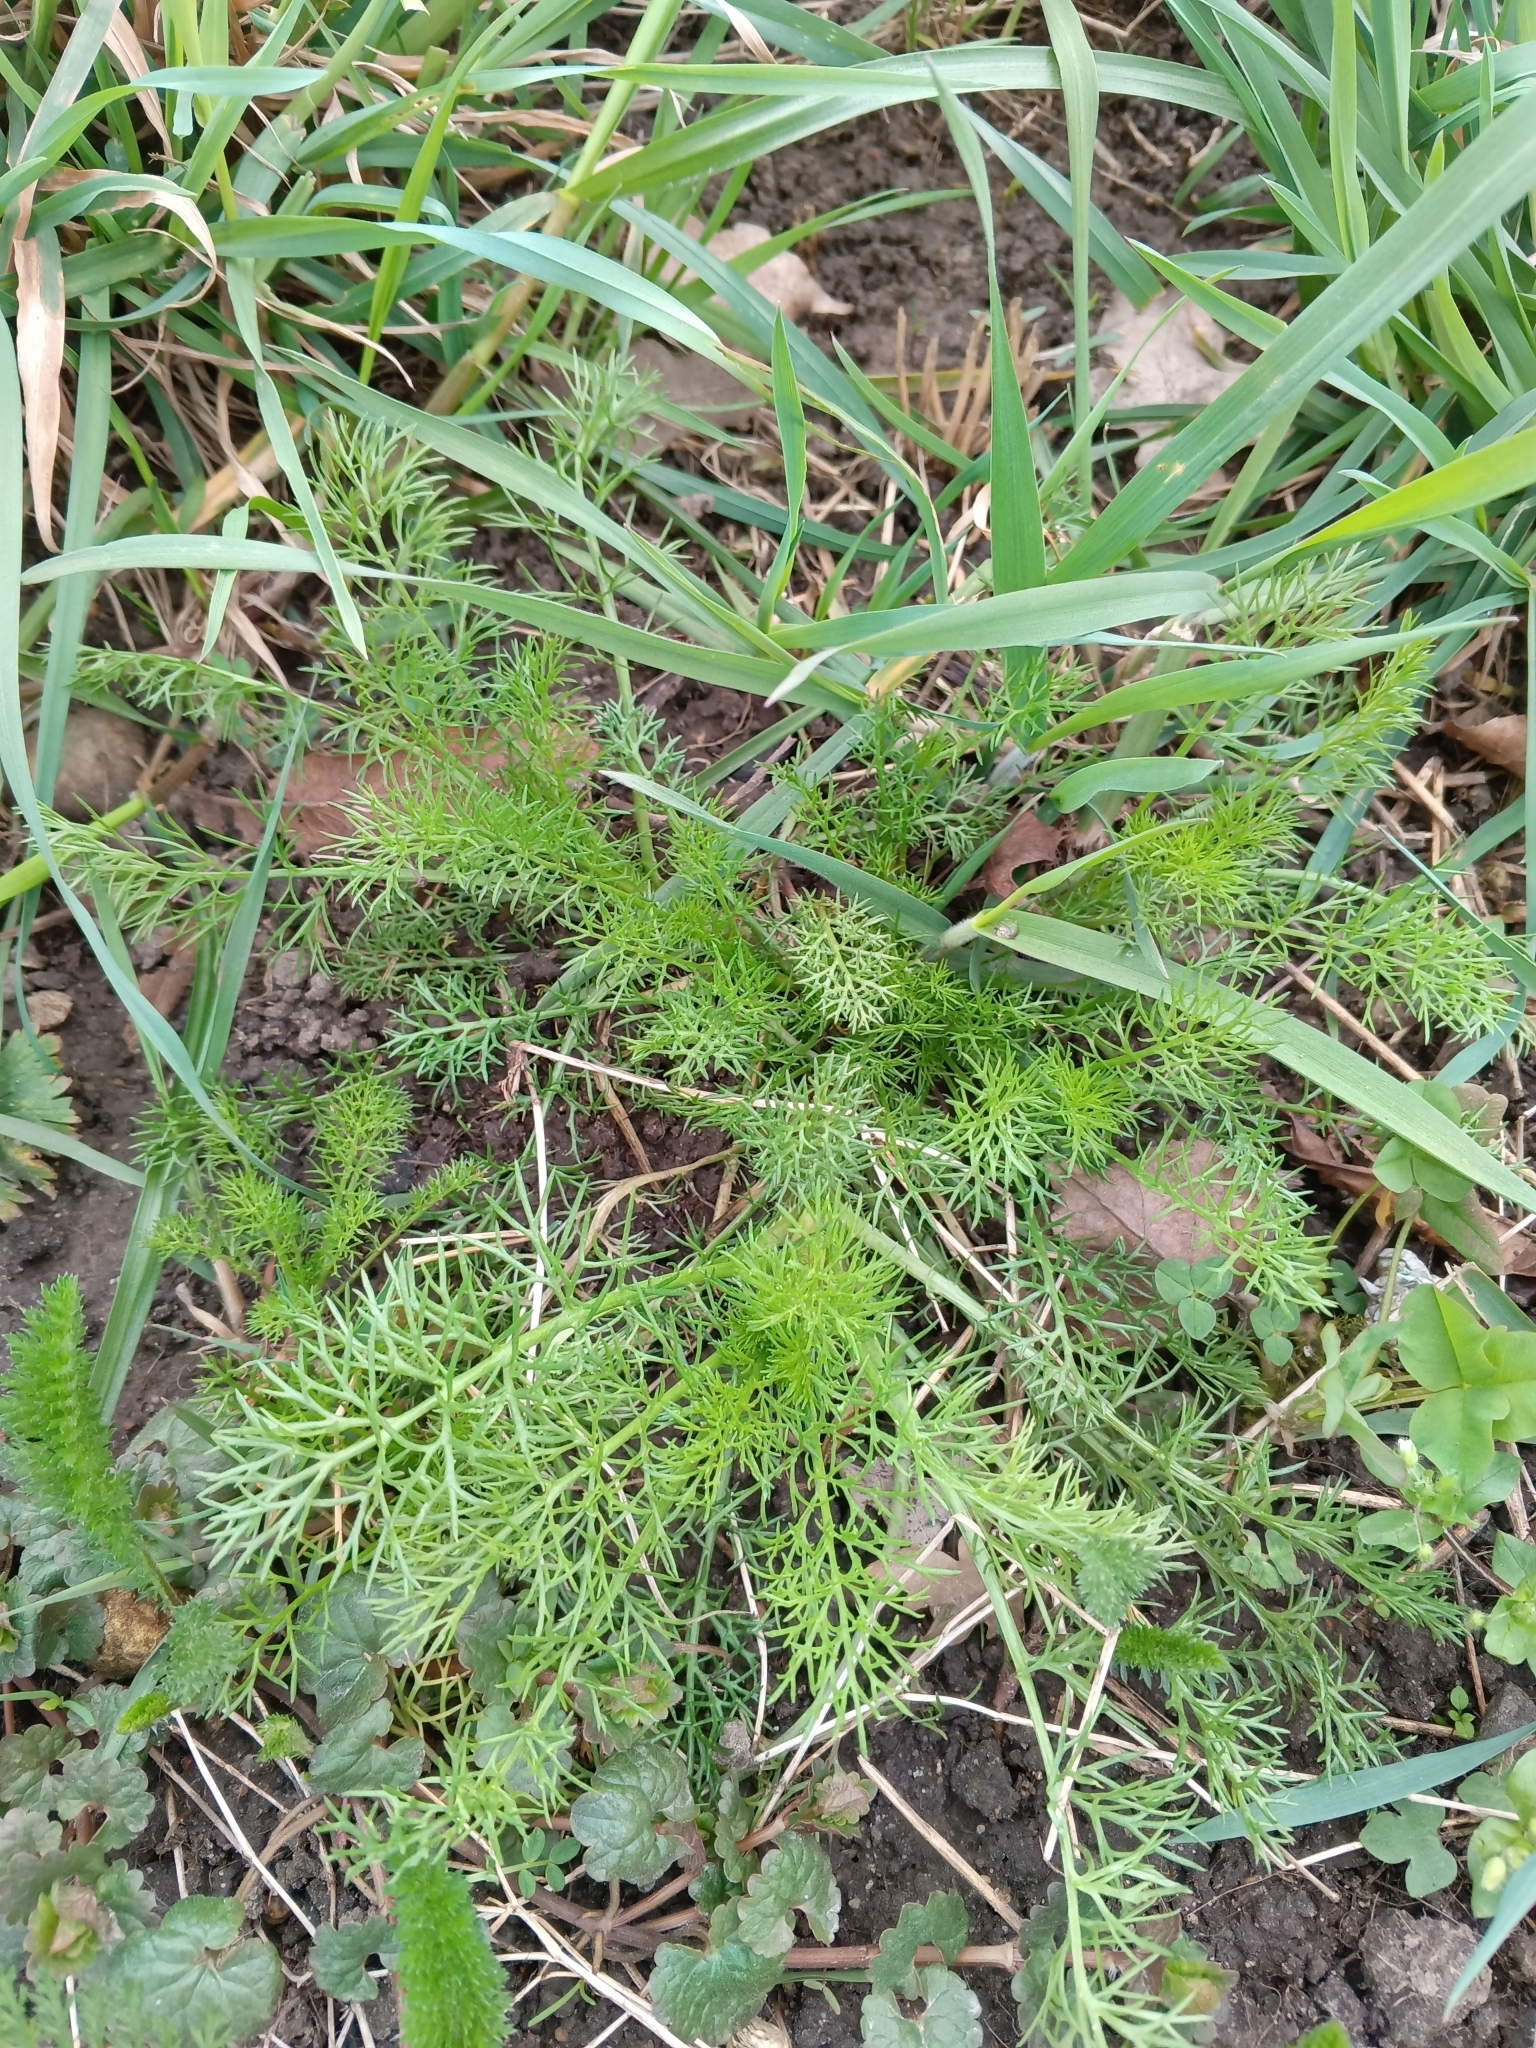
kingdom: Plantae
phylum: Tracheophyta
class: Magnoliopsida
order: Asterales
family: Asteraceae
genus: Tripleurospermum
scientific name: Tripleurospermum inodorum
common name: Scentless mayweed
